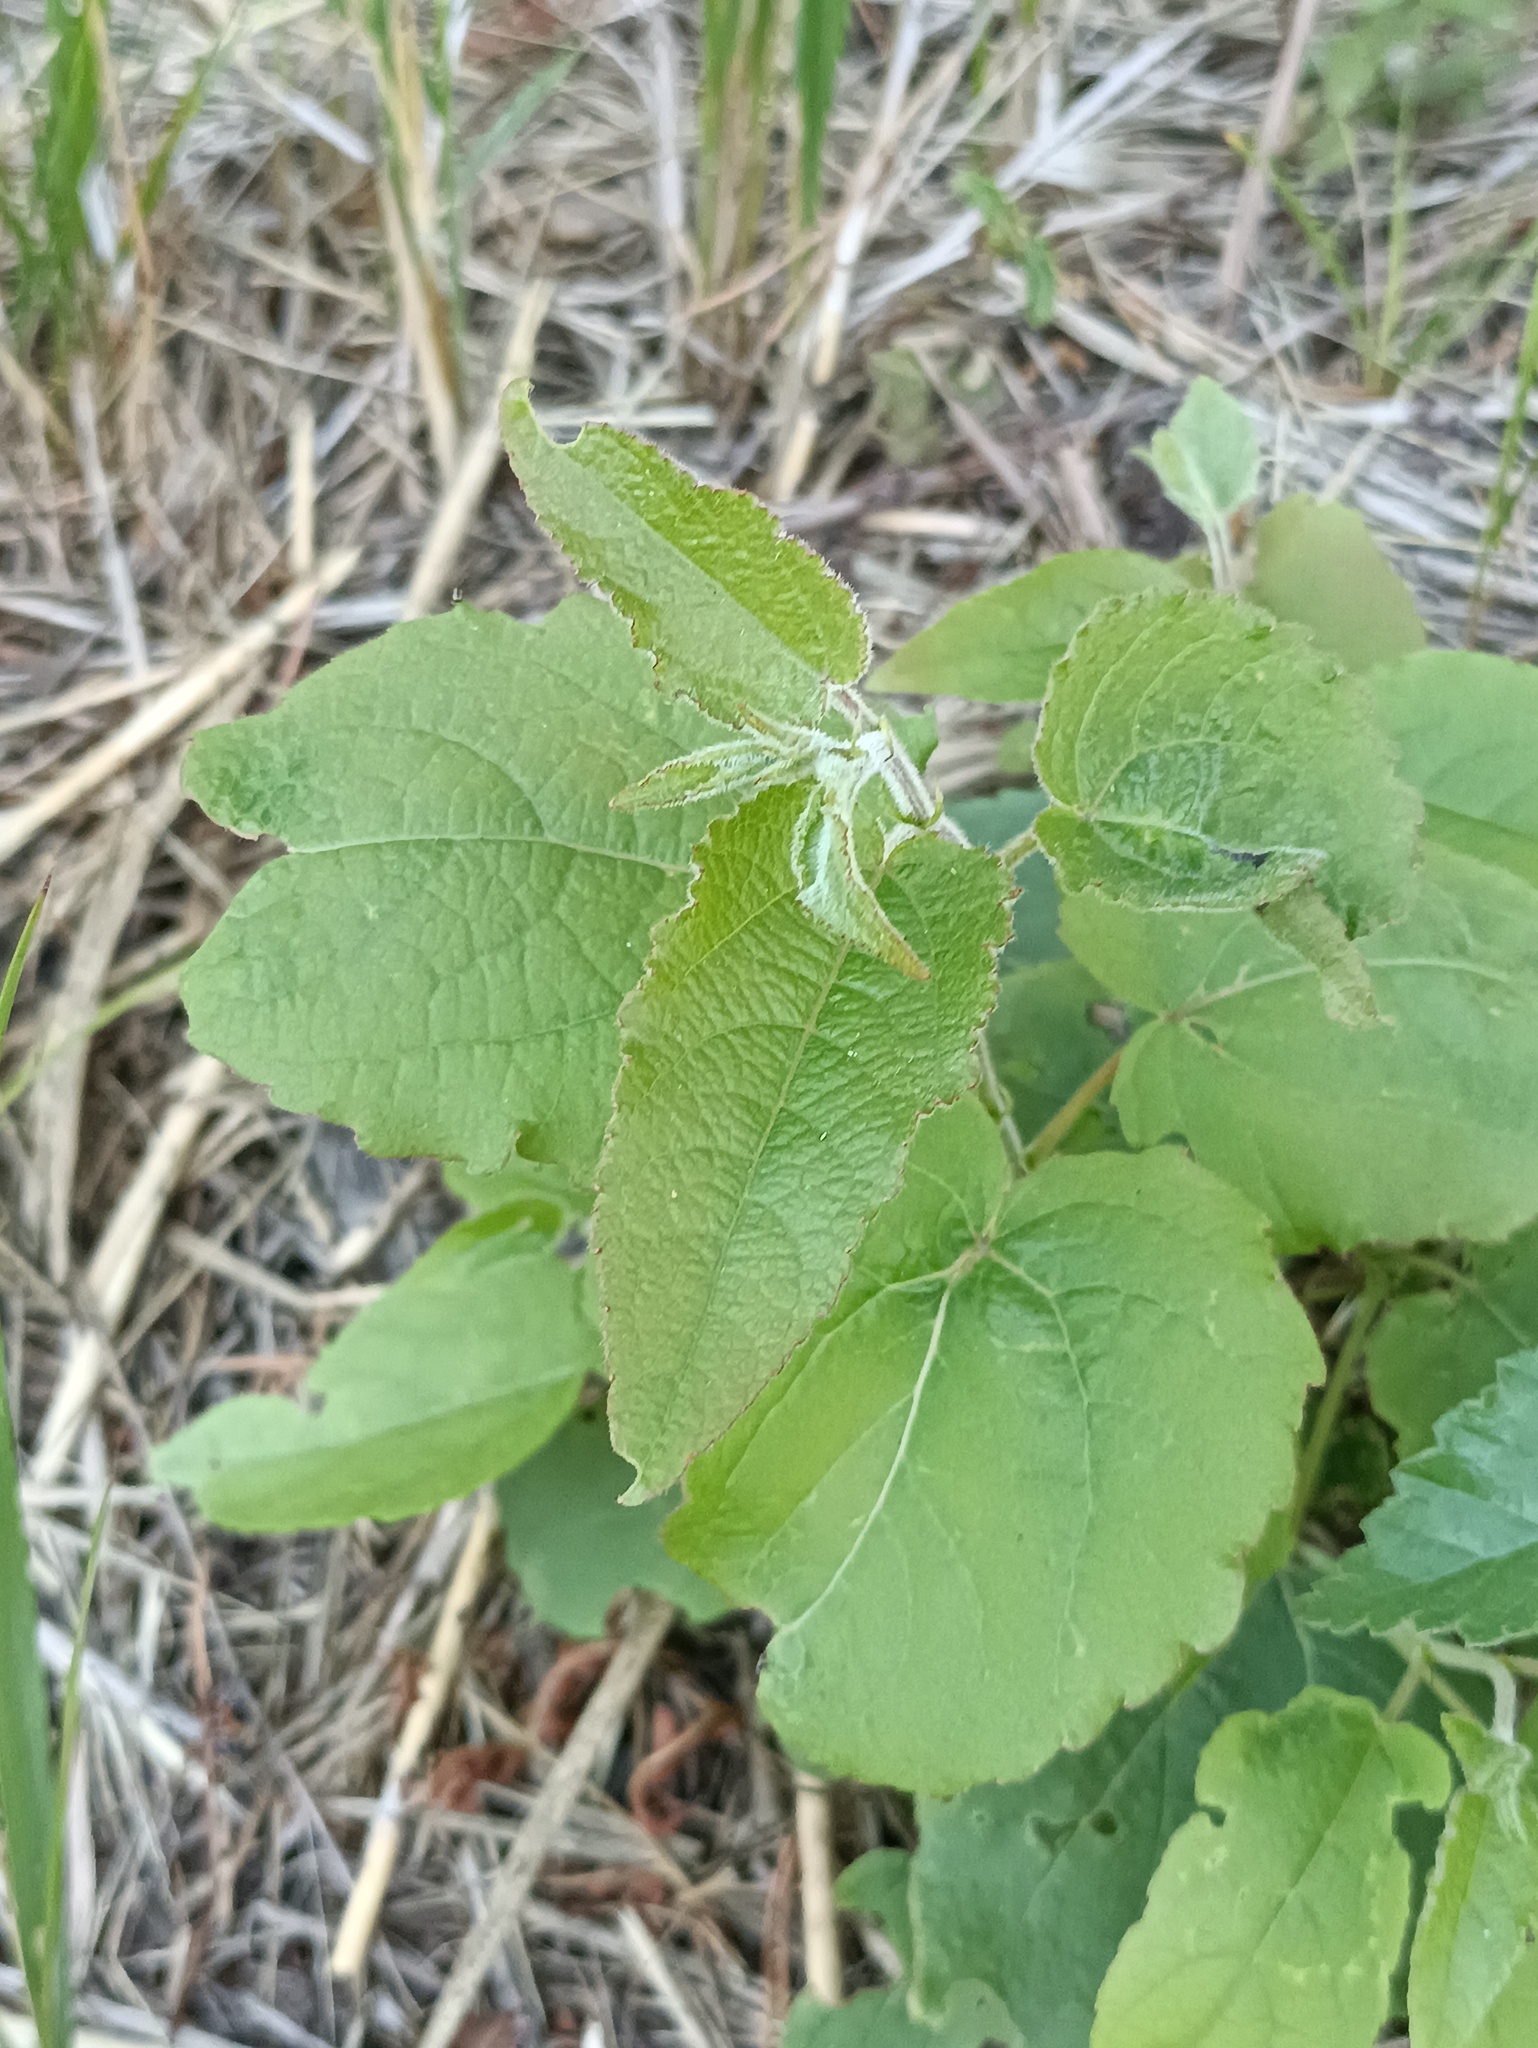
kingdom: Plantae
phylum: Tracheophyta
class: Magnoliopsida
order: Malpighiales
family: Salicaceae
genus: Populus
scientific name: Populus tremula
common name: European aspen
